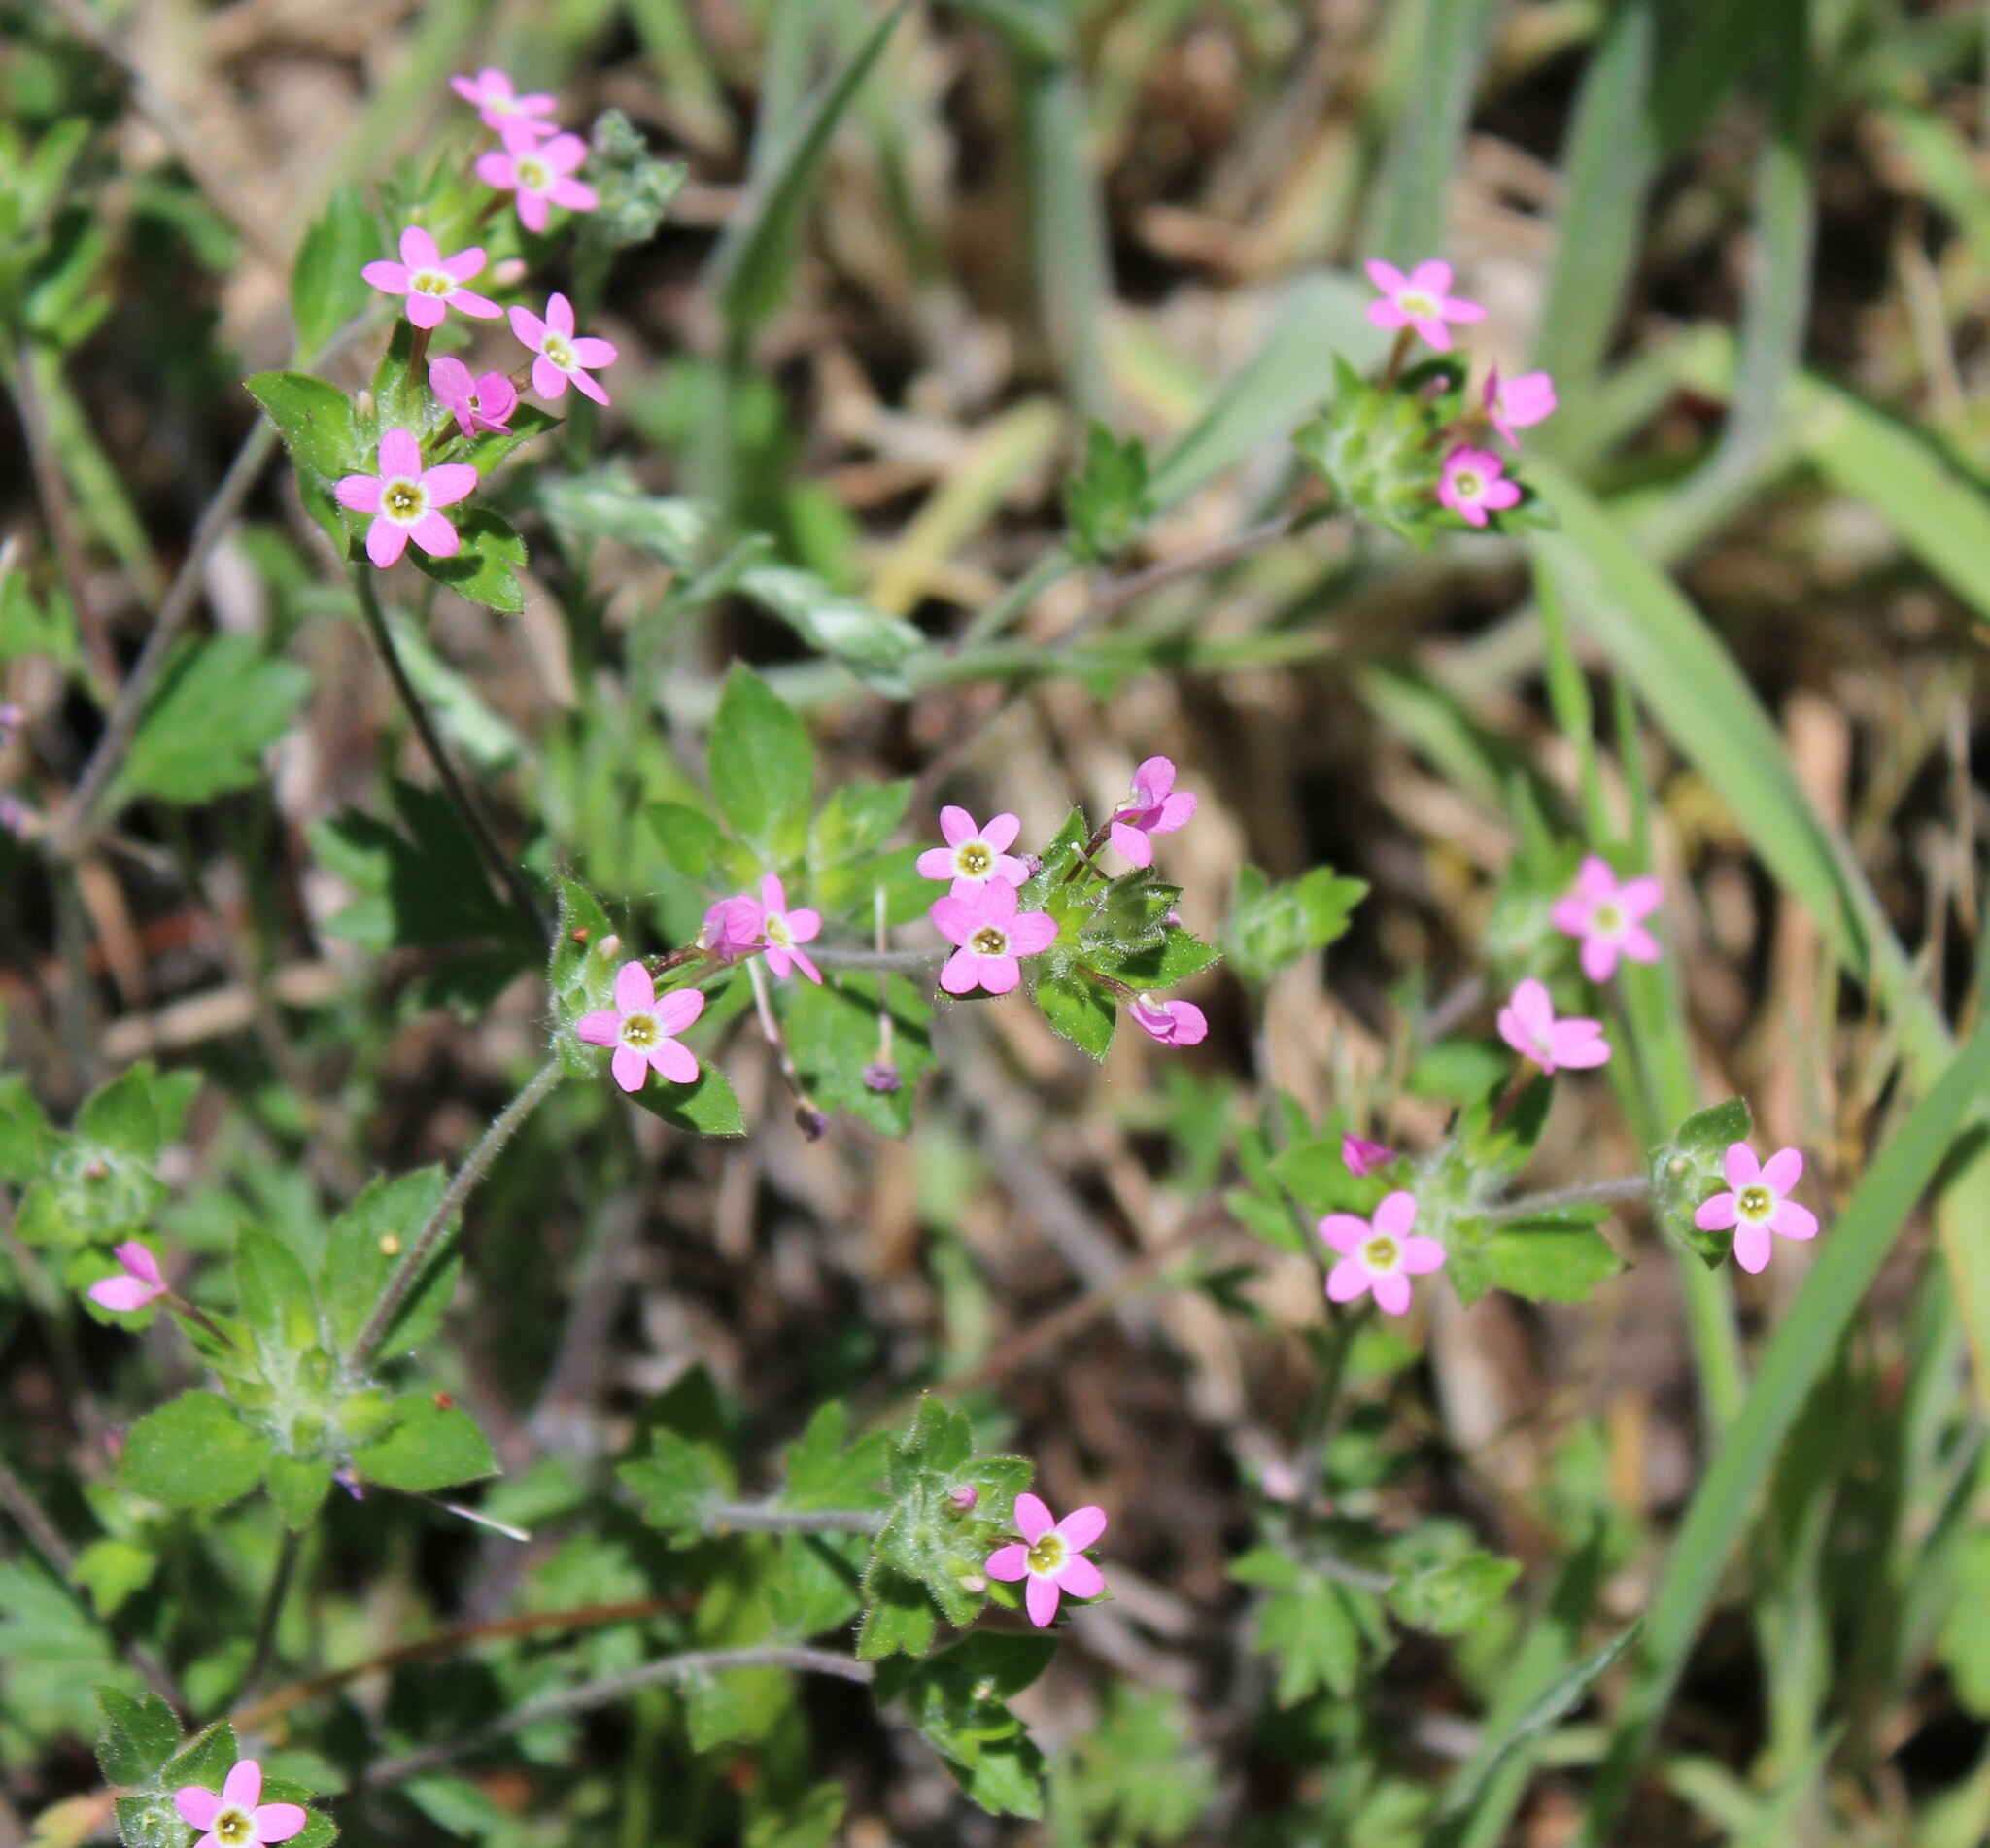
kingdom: Plantae
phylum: Tracheophyta
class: Magnoliopsida
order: Ericales
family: Polemoniaceae
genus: Collomia
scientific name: Collomia heterophylla
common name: Variable-leaved collomia
